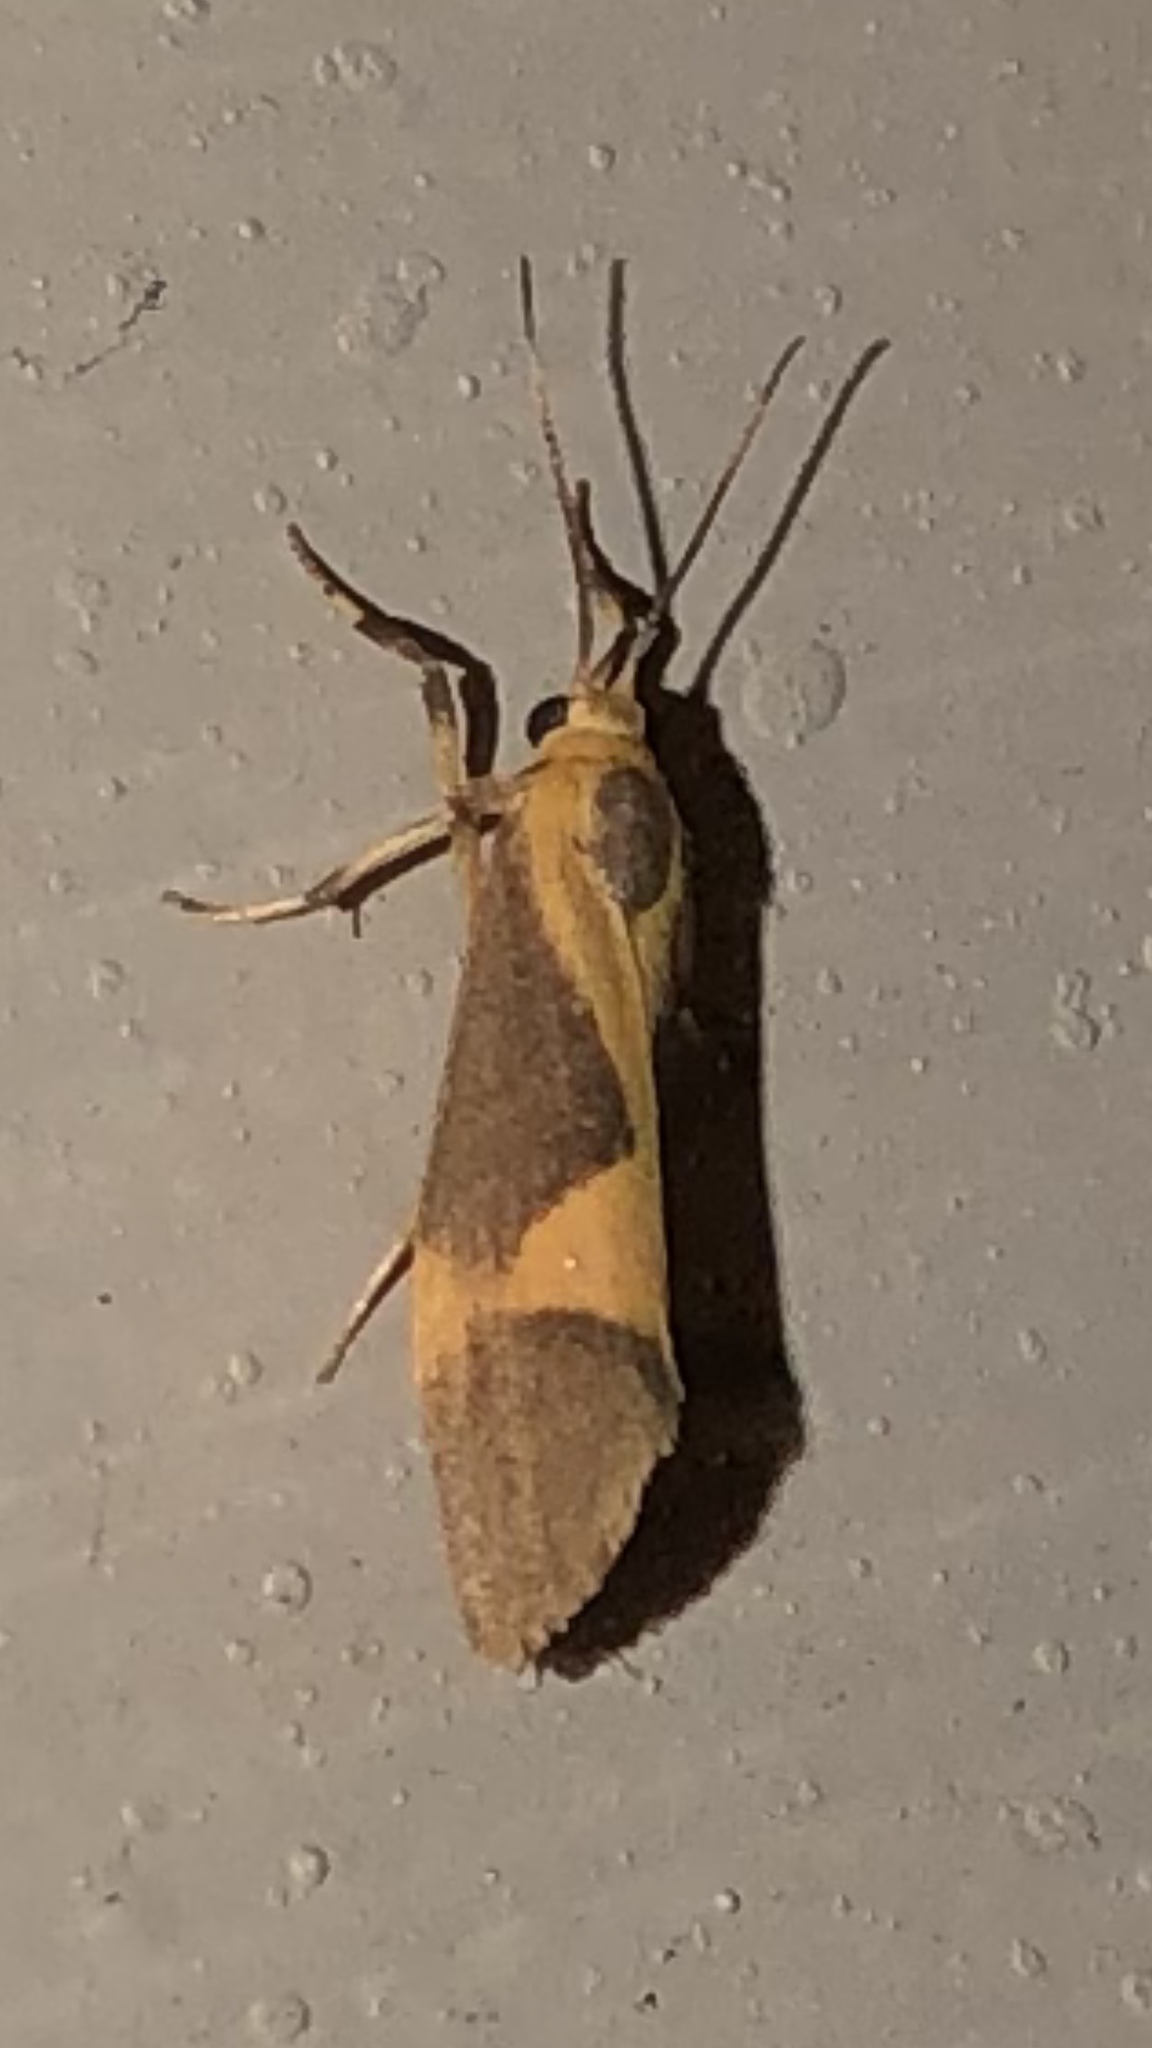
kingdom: Animalia
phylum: Arthropoda
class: Insecta
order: Lepidoptera
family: Erebidae
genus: Cisthene
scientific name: Cisthene unifascia
